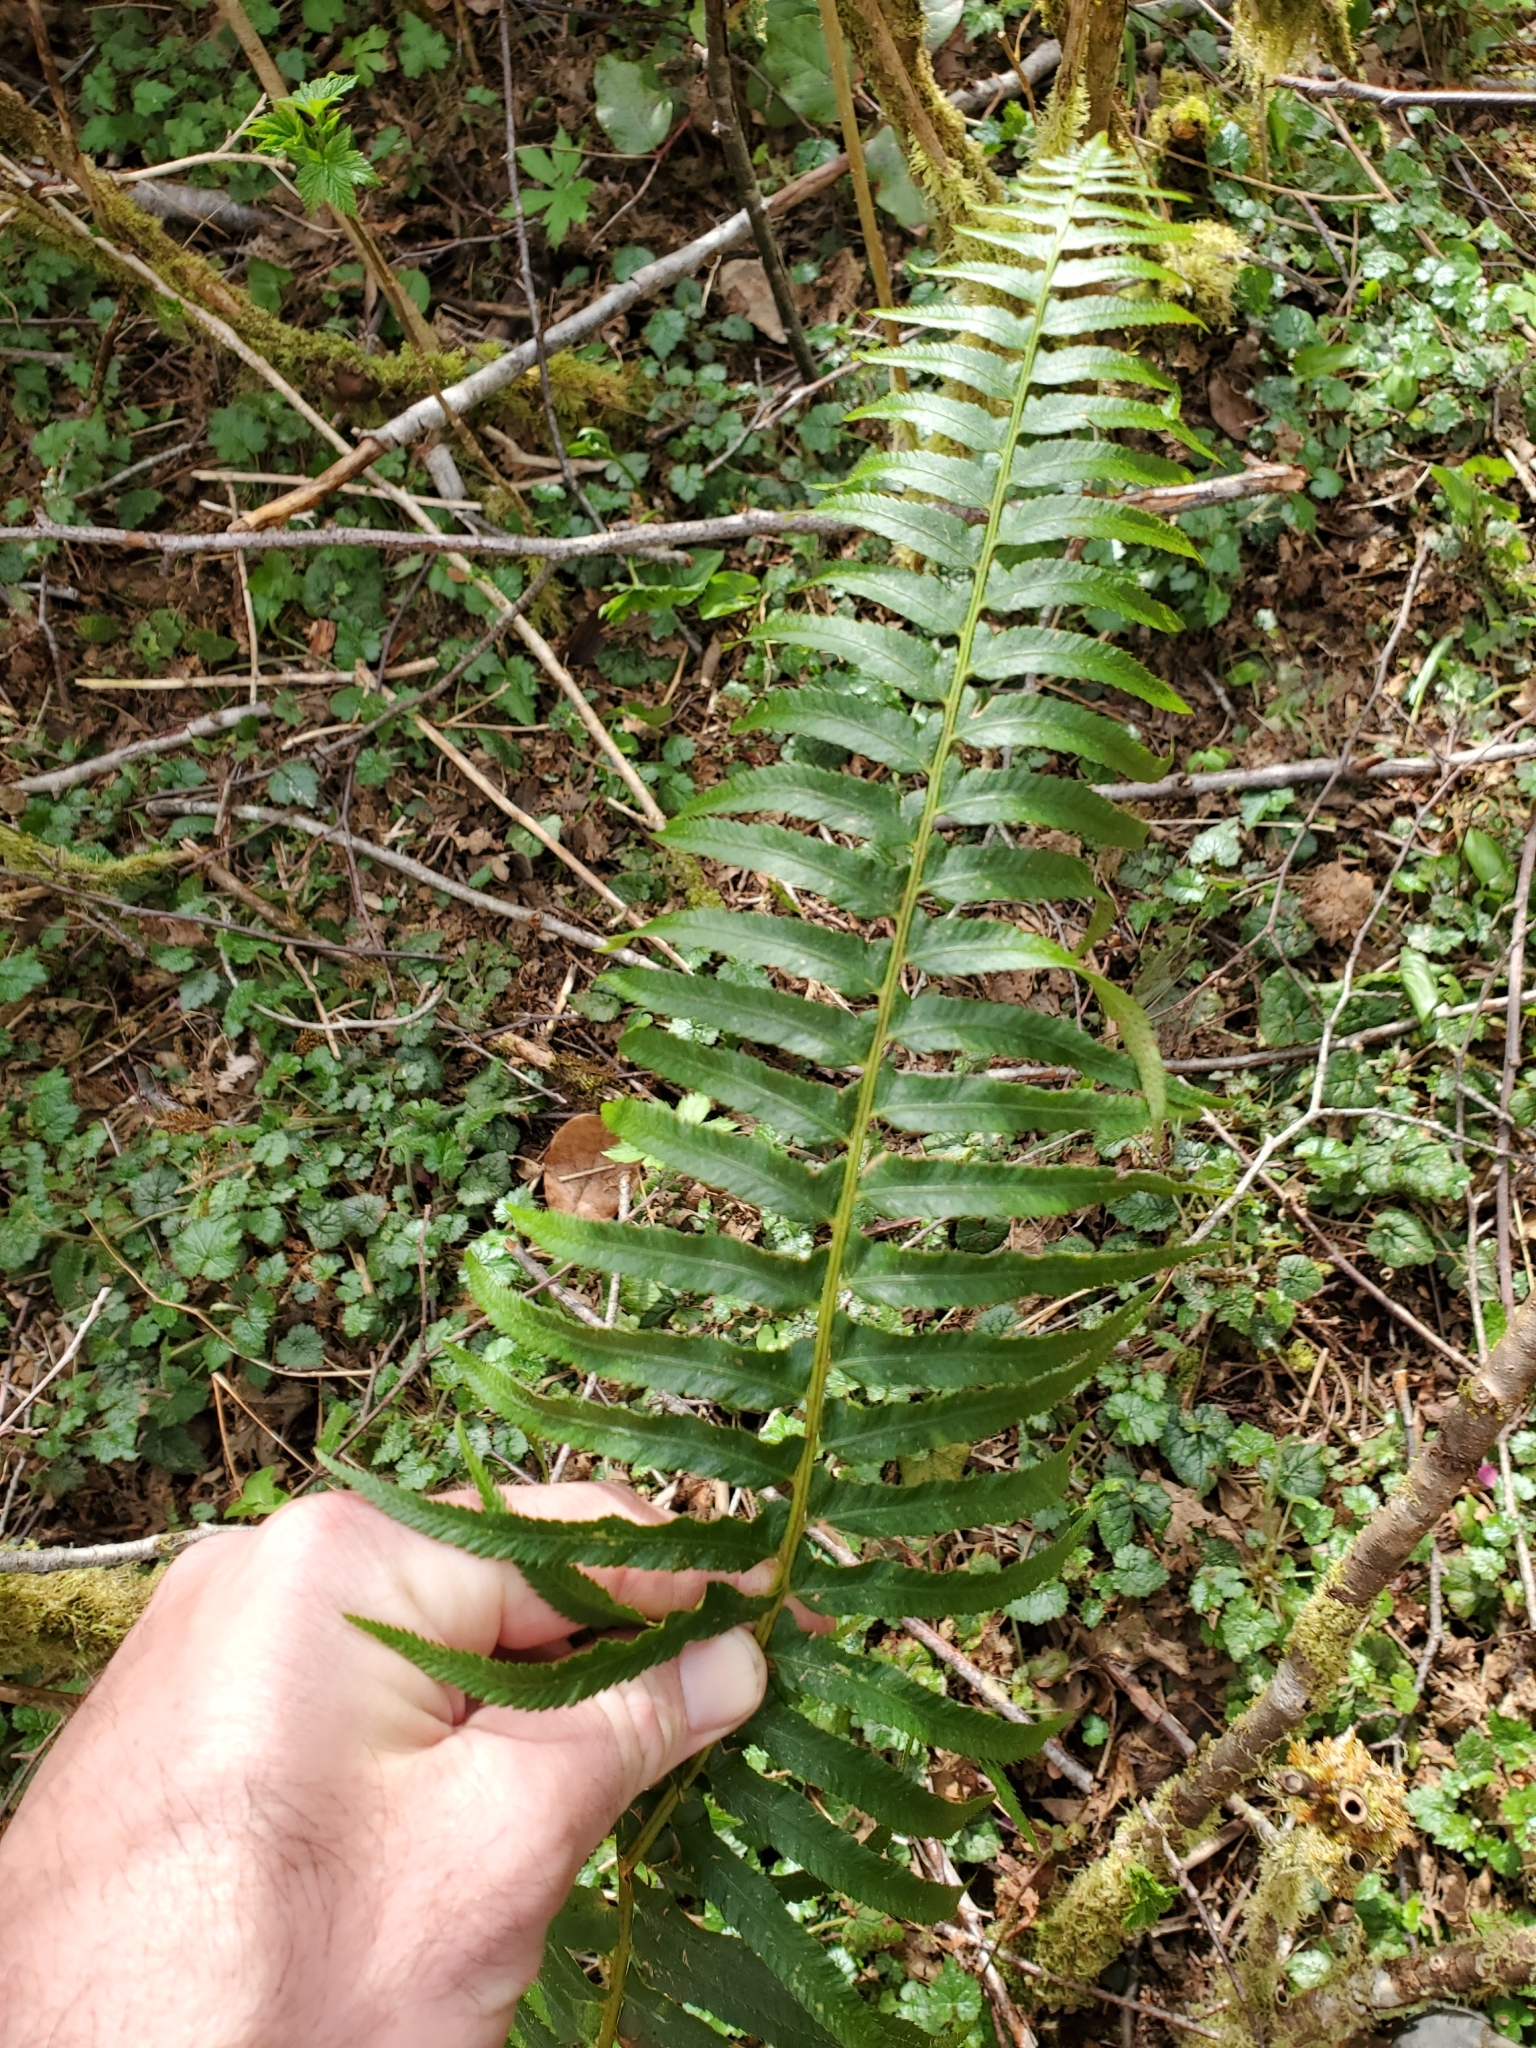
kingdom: Plantae
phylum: Tracheophyta
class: Polypodiopsida
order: Polypodiales
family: Dryopteridaceae
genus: Polystichum
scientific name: Polystichum munitum
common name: Western sword-fern
